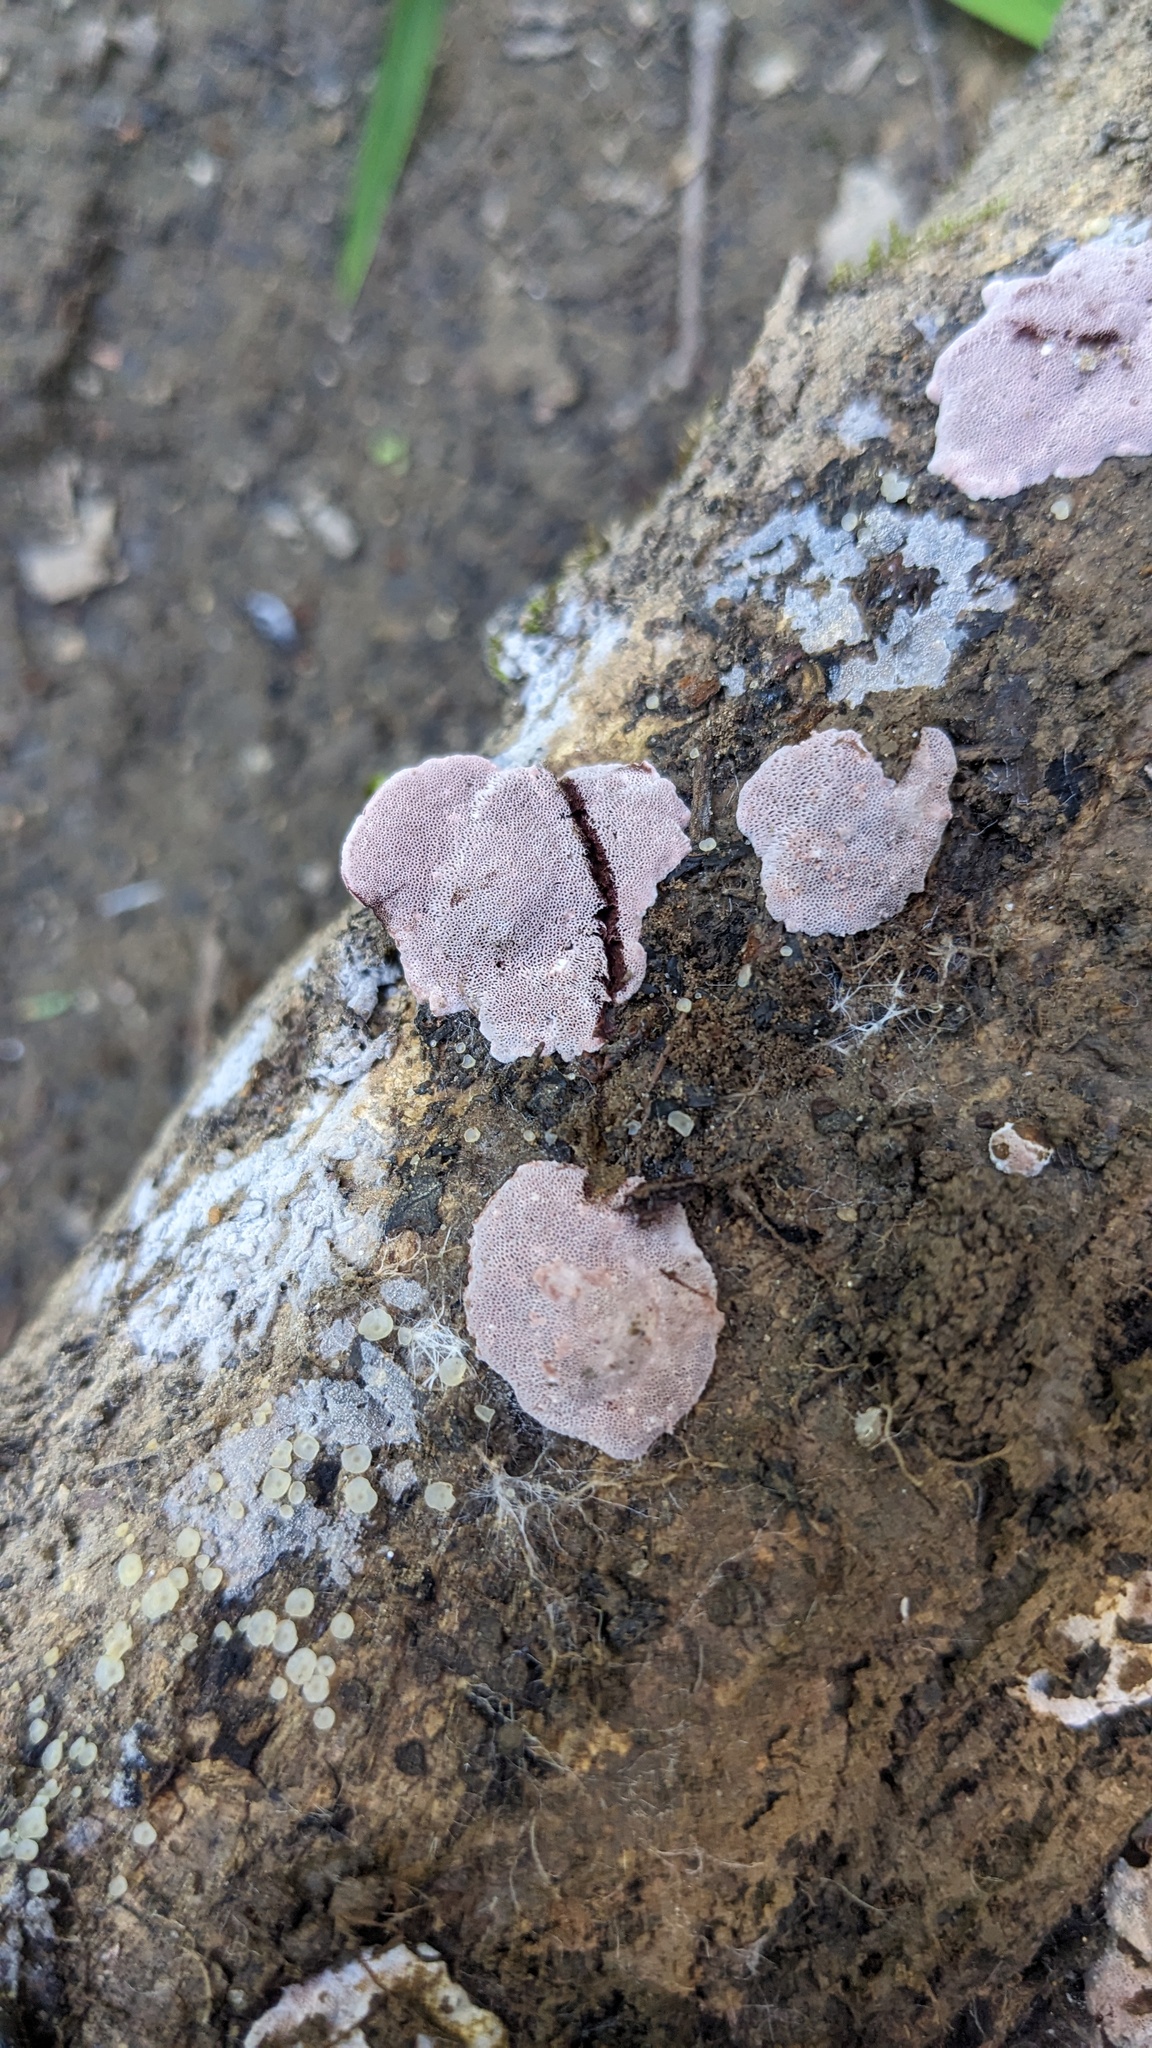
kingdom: Fungi
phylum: Basidiomycota
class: Agaricomycetes
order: Polyporales
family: Polyporaceae
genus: Abundisporus
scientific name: Abundisporus pubertatis
